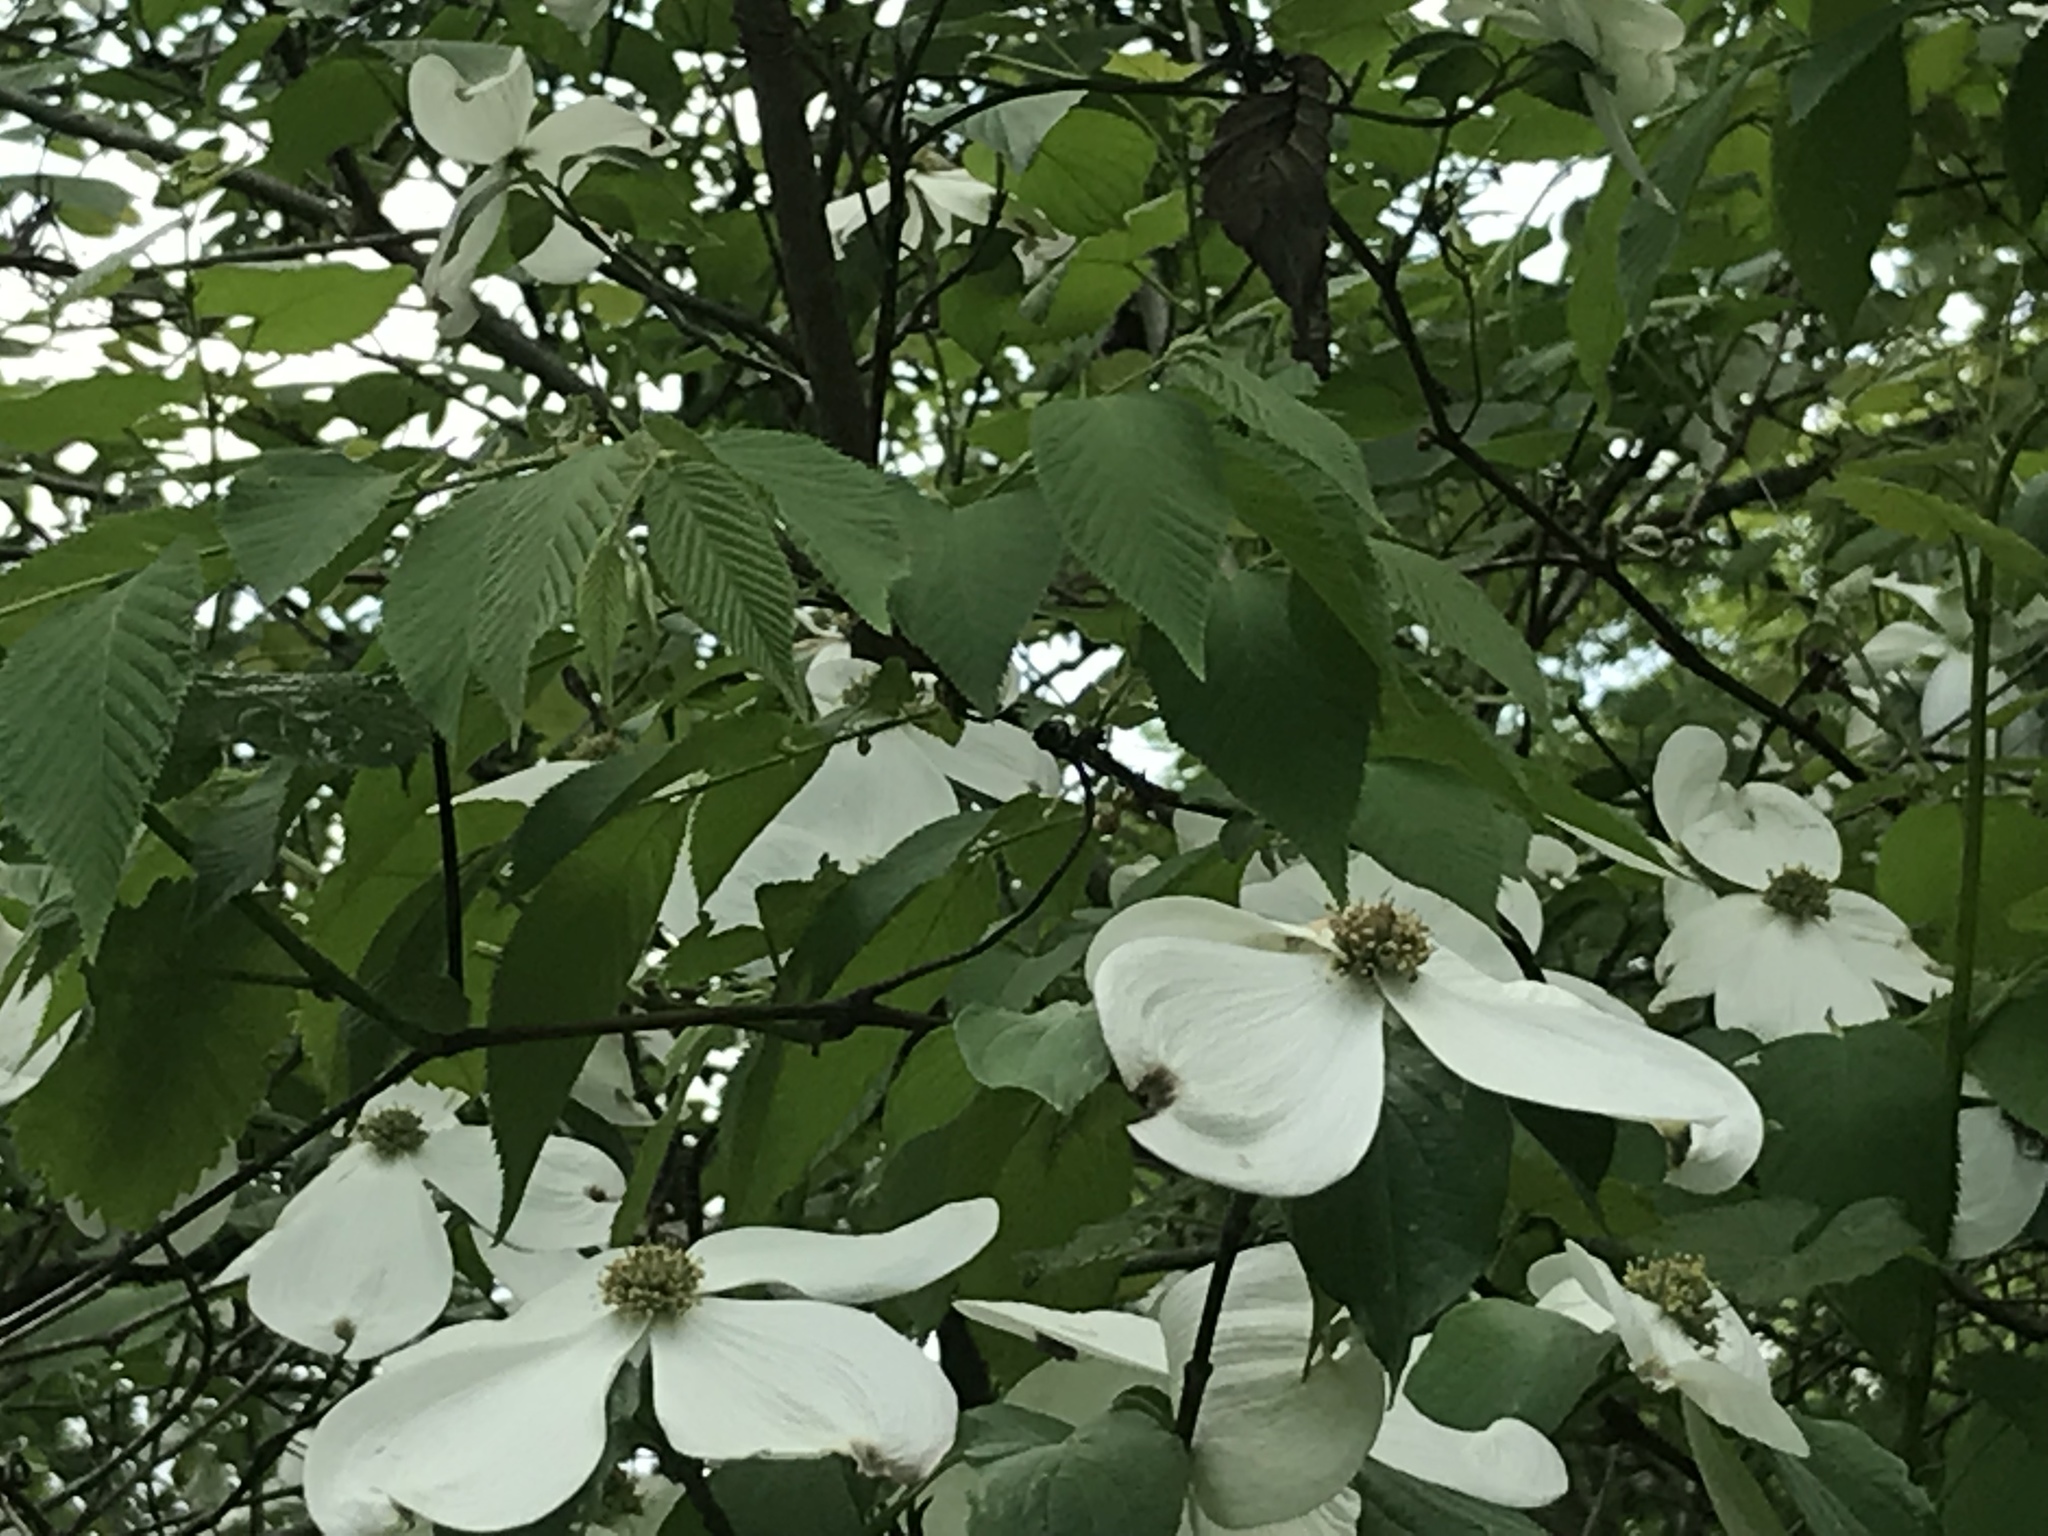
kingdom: Plantae
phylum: Tracheophyta
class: Magnoliopsida
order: Cornales
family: Cornaceae
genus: Cornus
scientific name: Cornus florida
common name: Flowering dogwood
